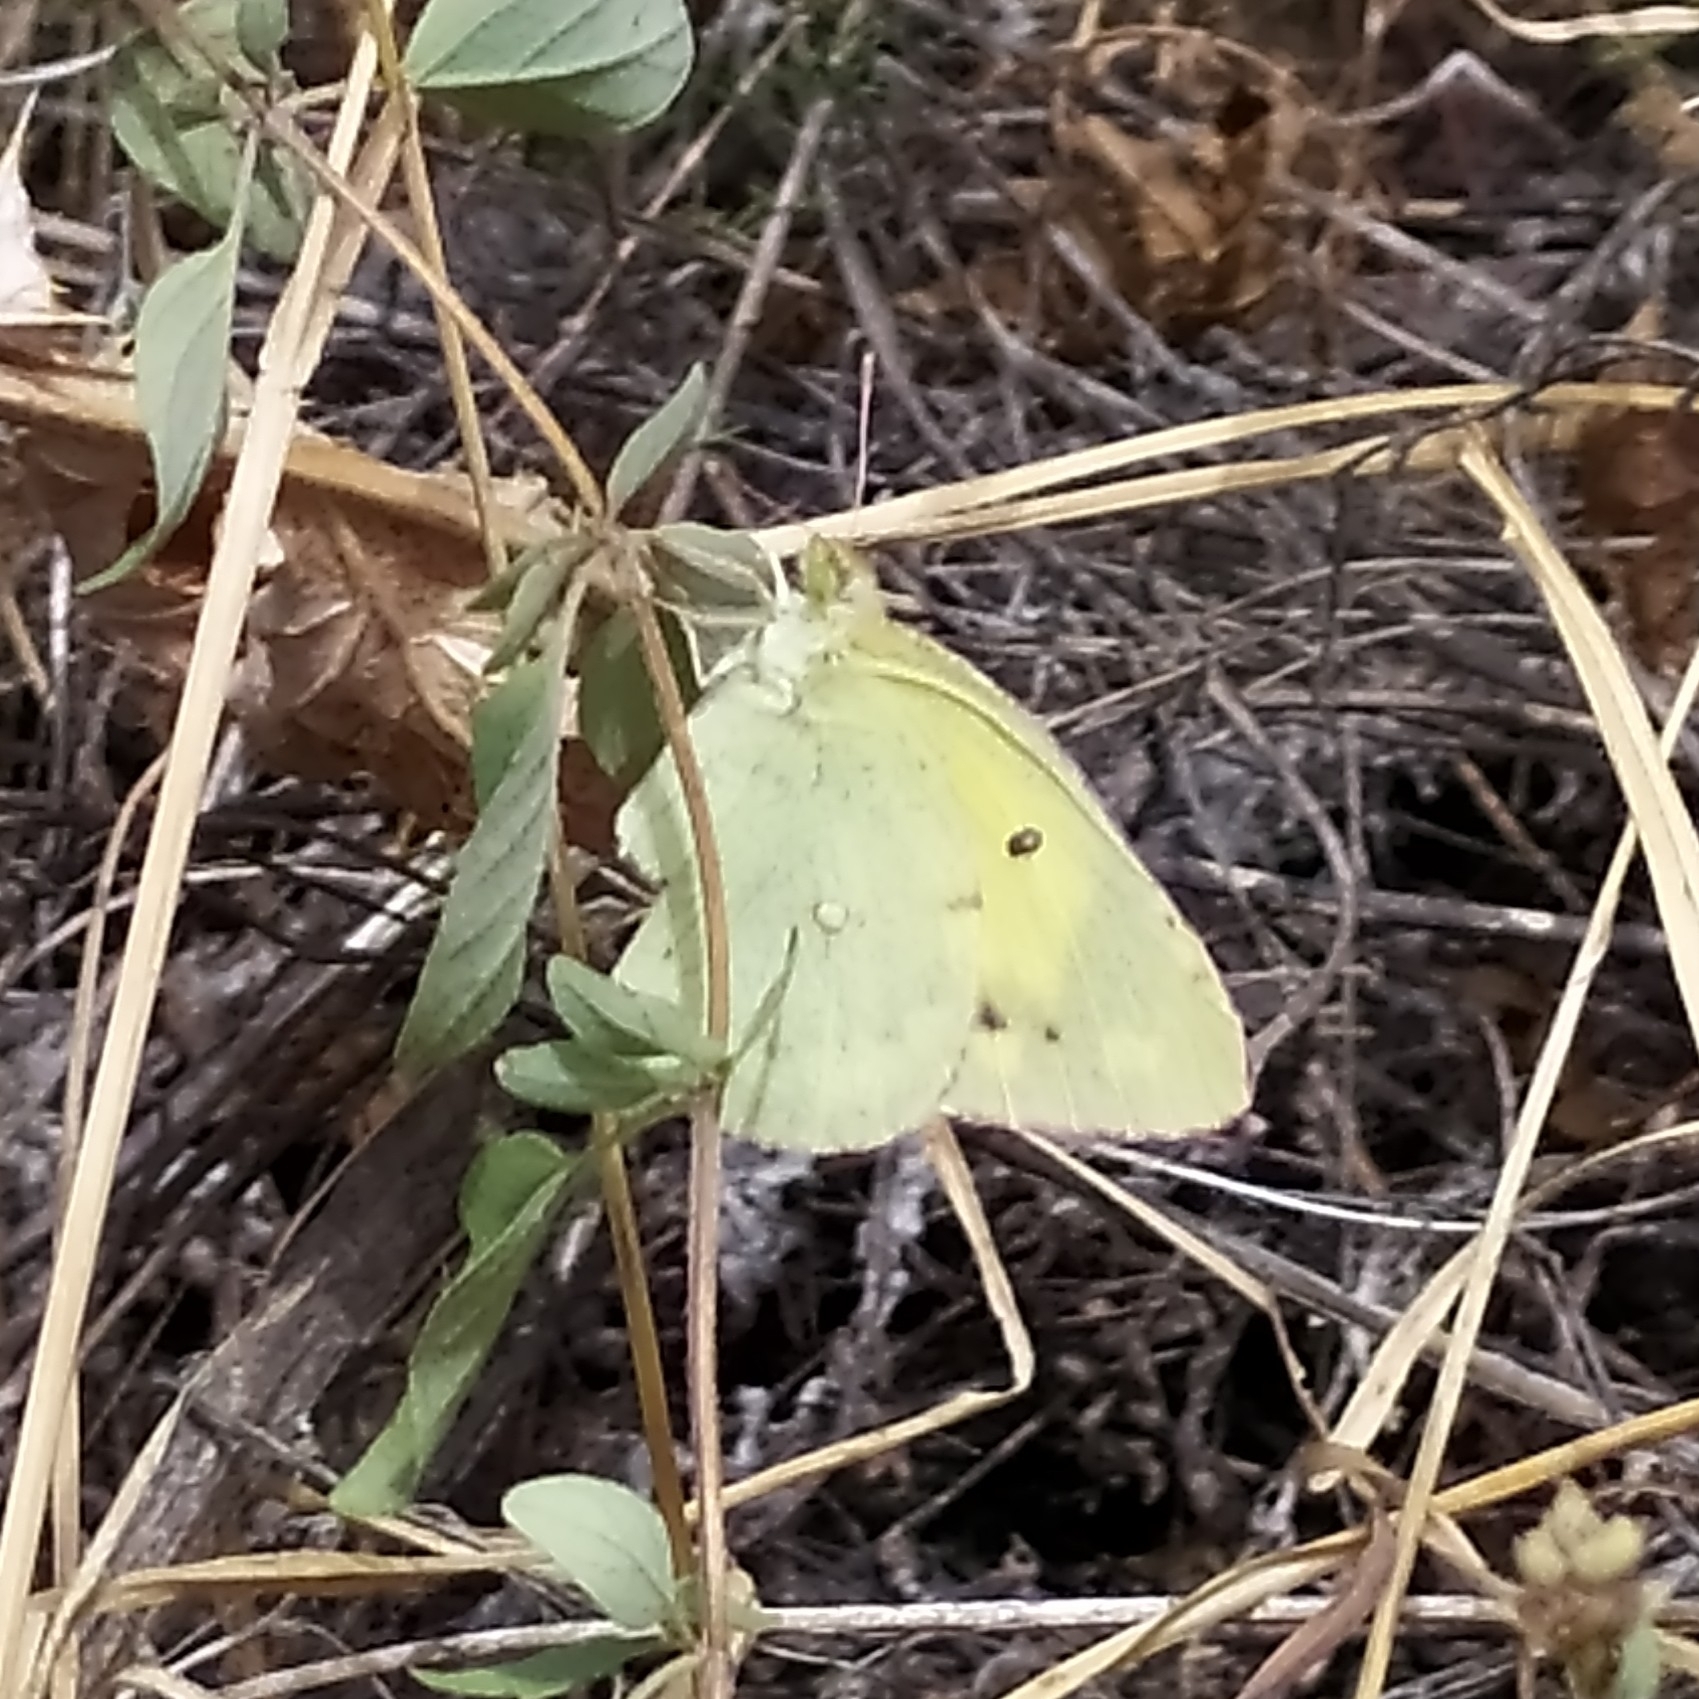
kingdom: Animalia
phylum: Arthropoda
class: Insecta
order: Lepidoptera
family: Pieridae
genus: Colias
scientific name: Colias erate
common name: Eastern pale clouded yellow
